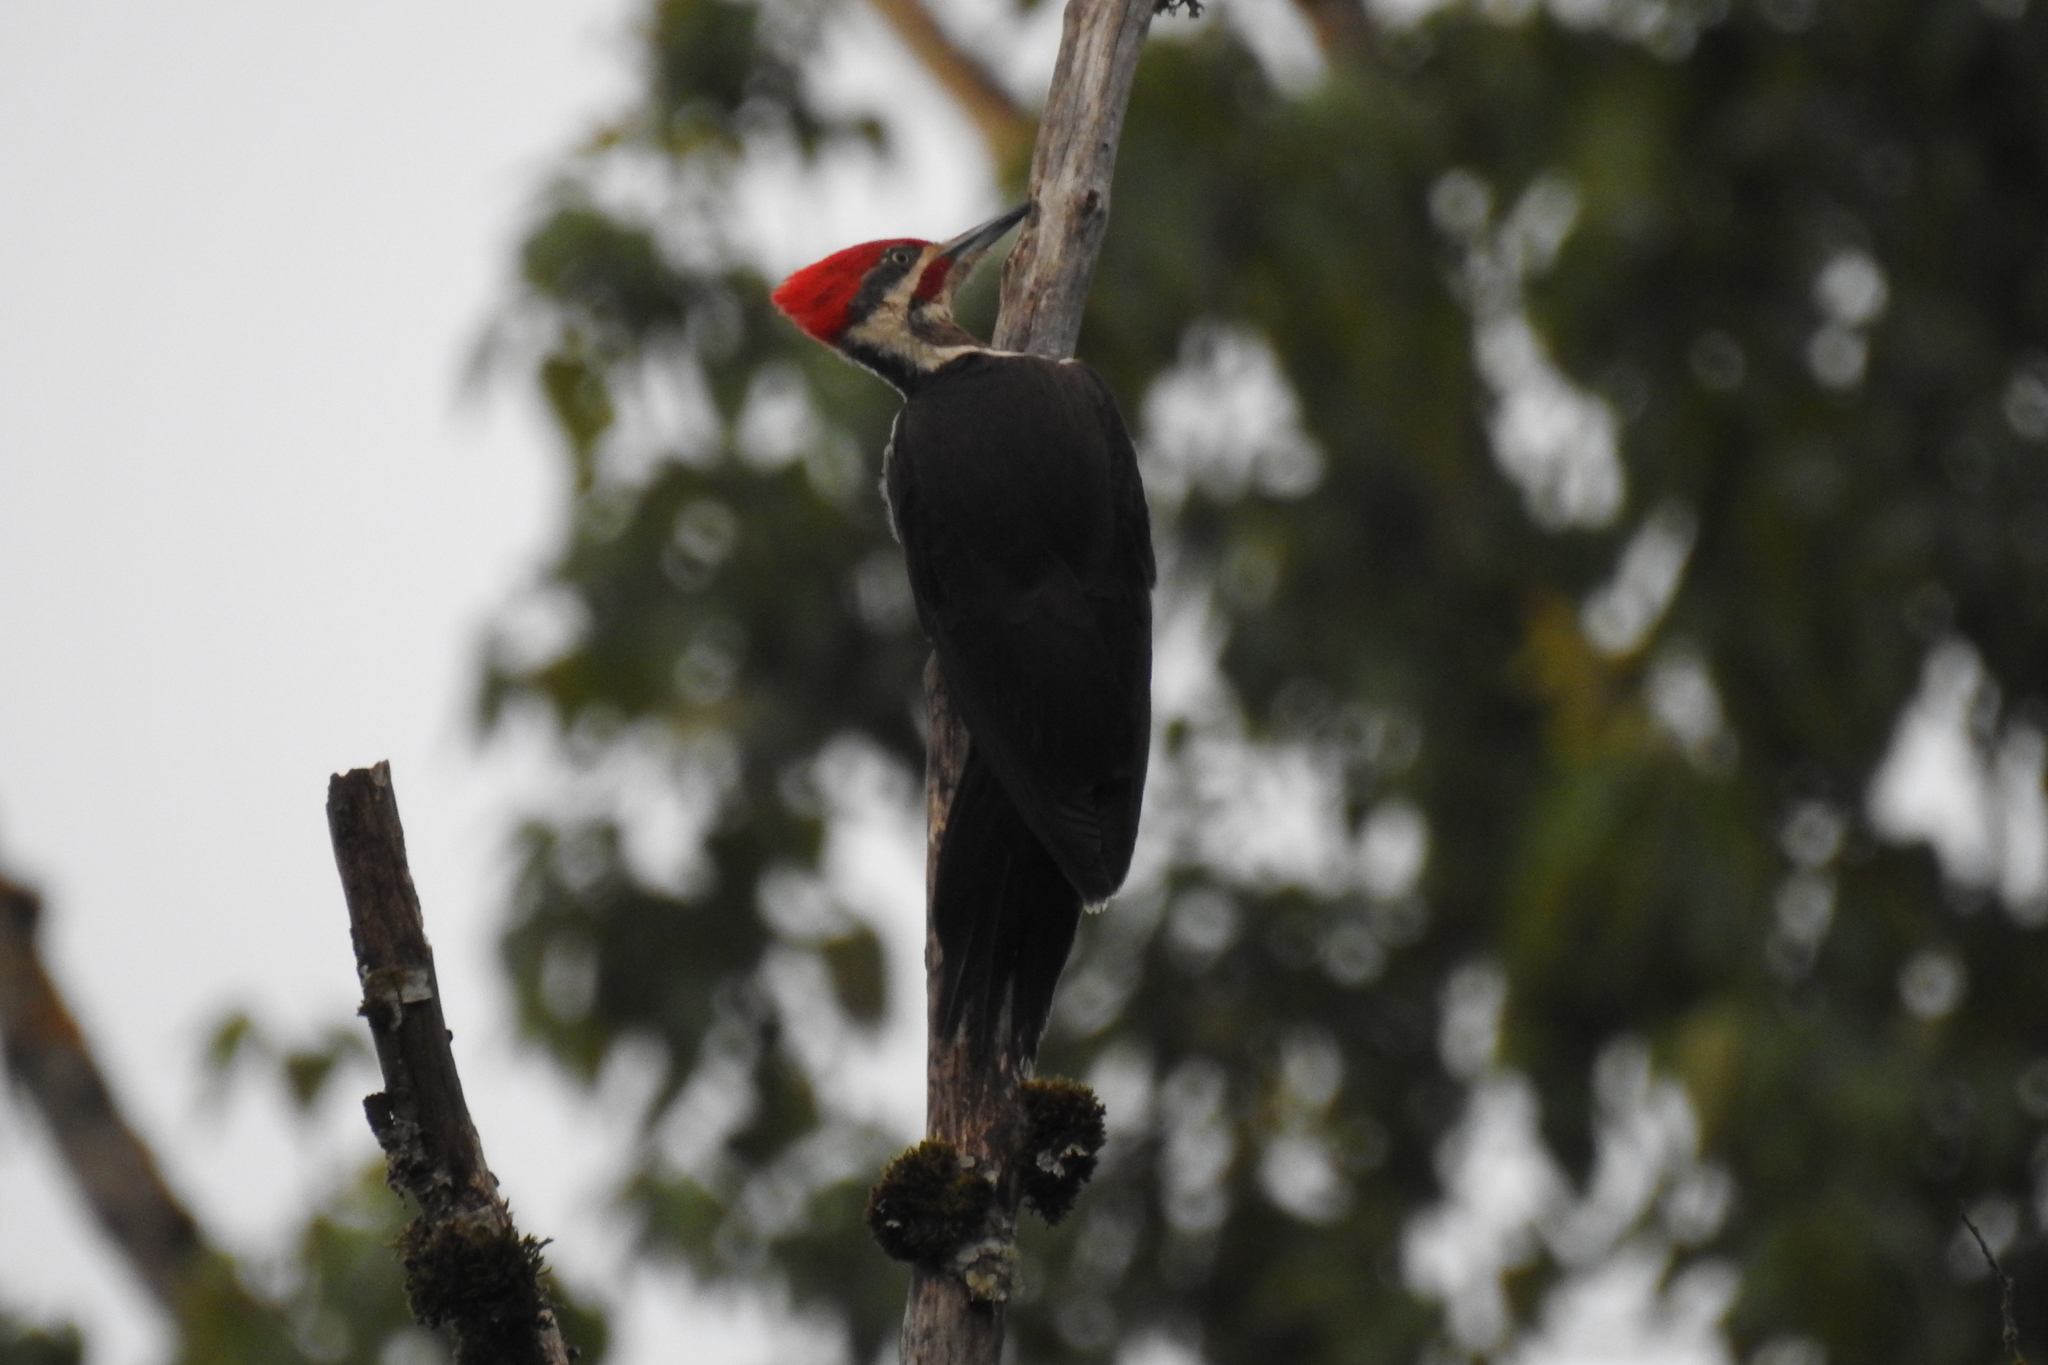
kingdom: Animalia
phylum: Chordata
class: Aves
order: Piciformes
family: Picidae
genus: Dryocopus
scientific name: Dryocopus pileatus
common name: Pileated woodpecker
